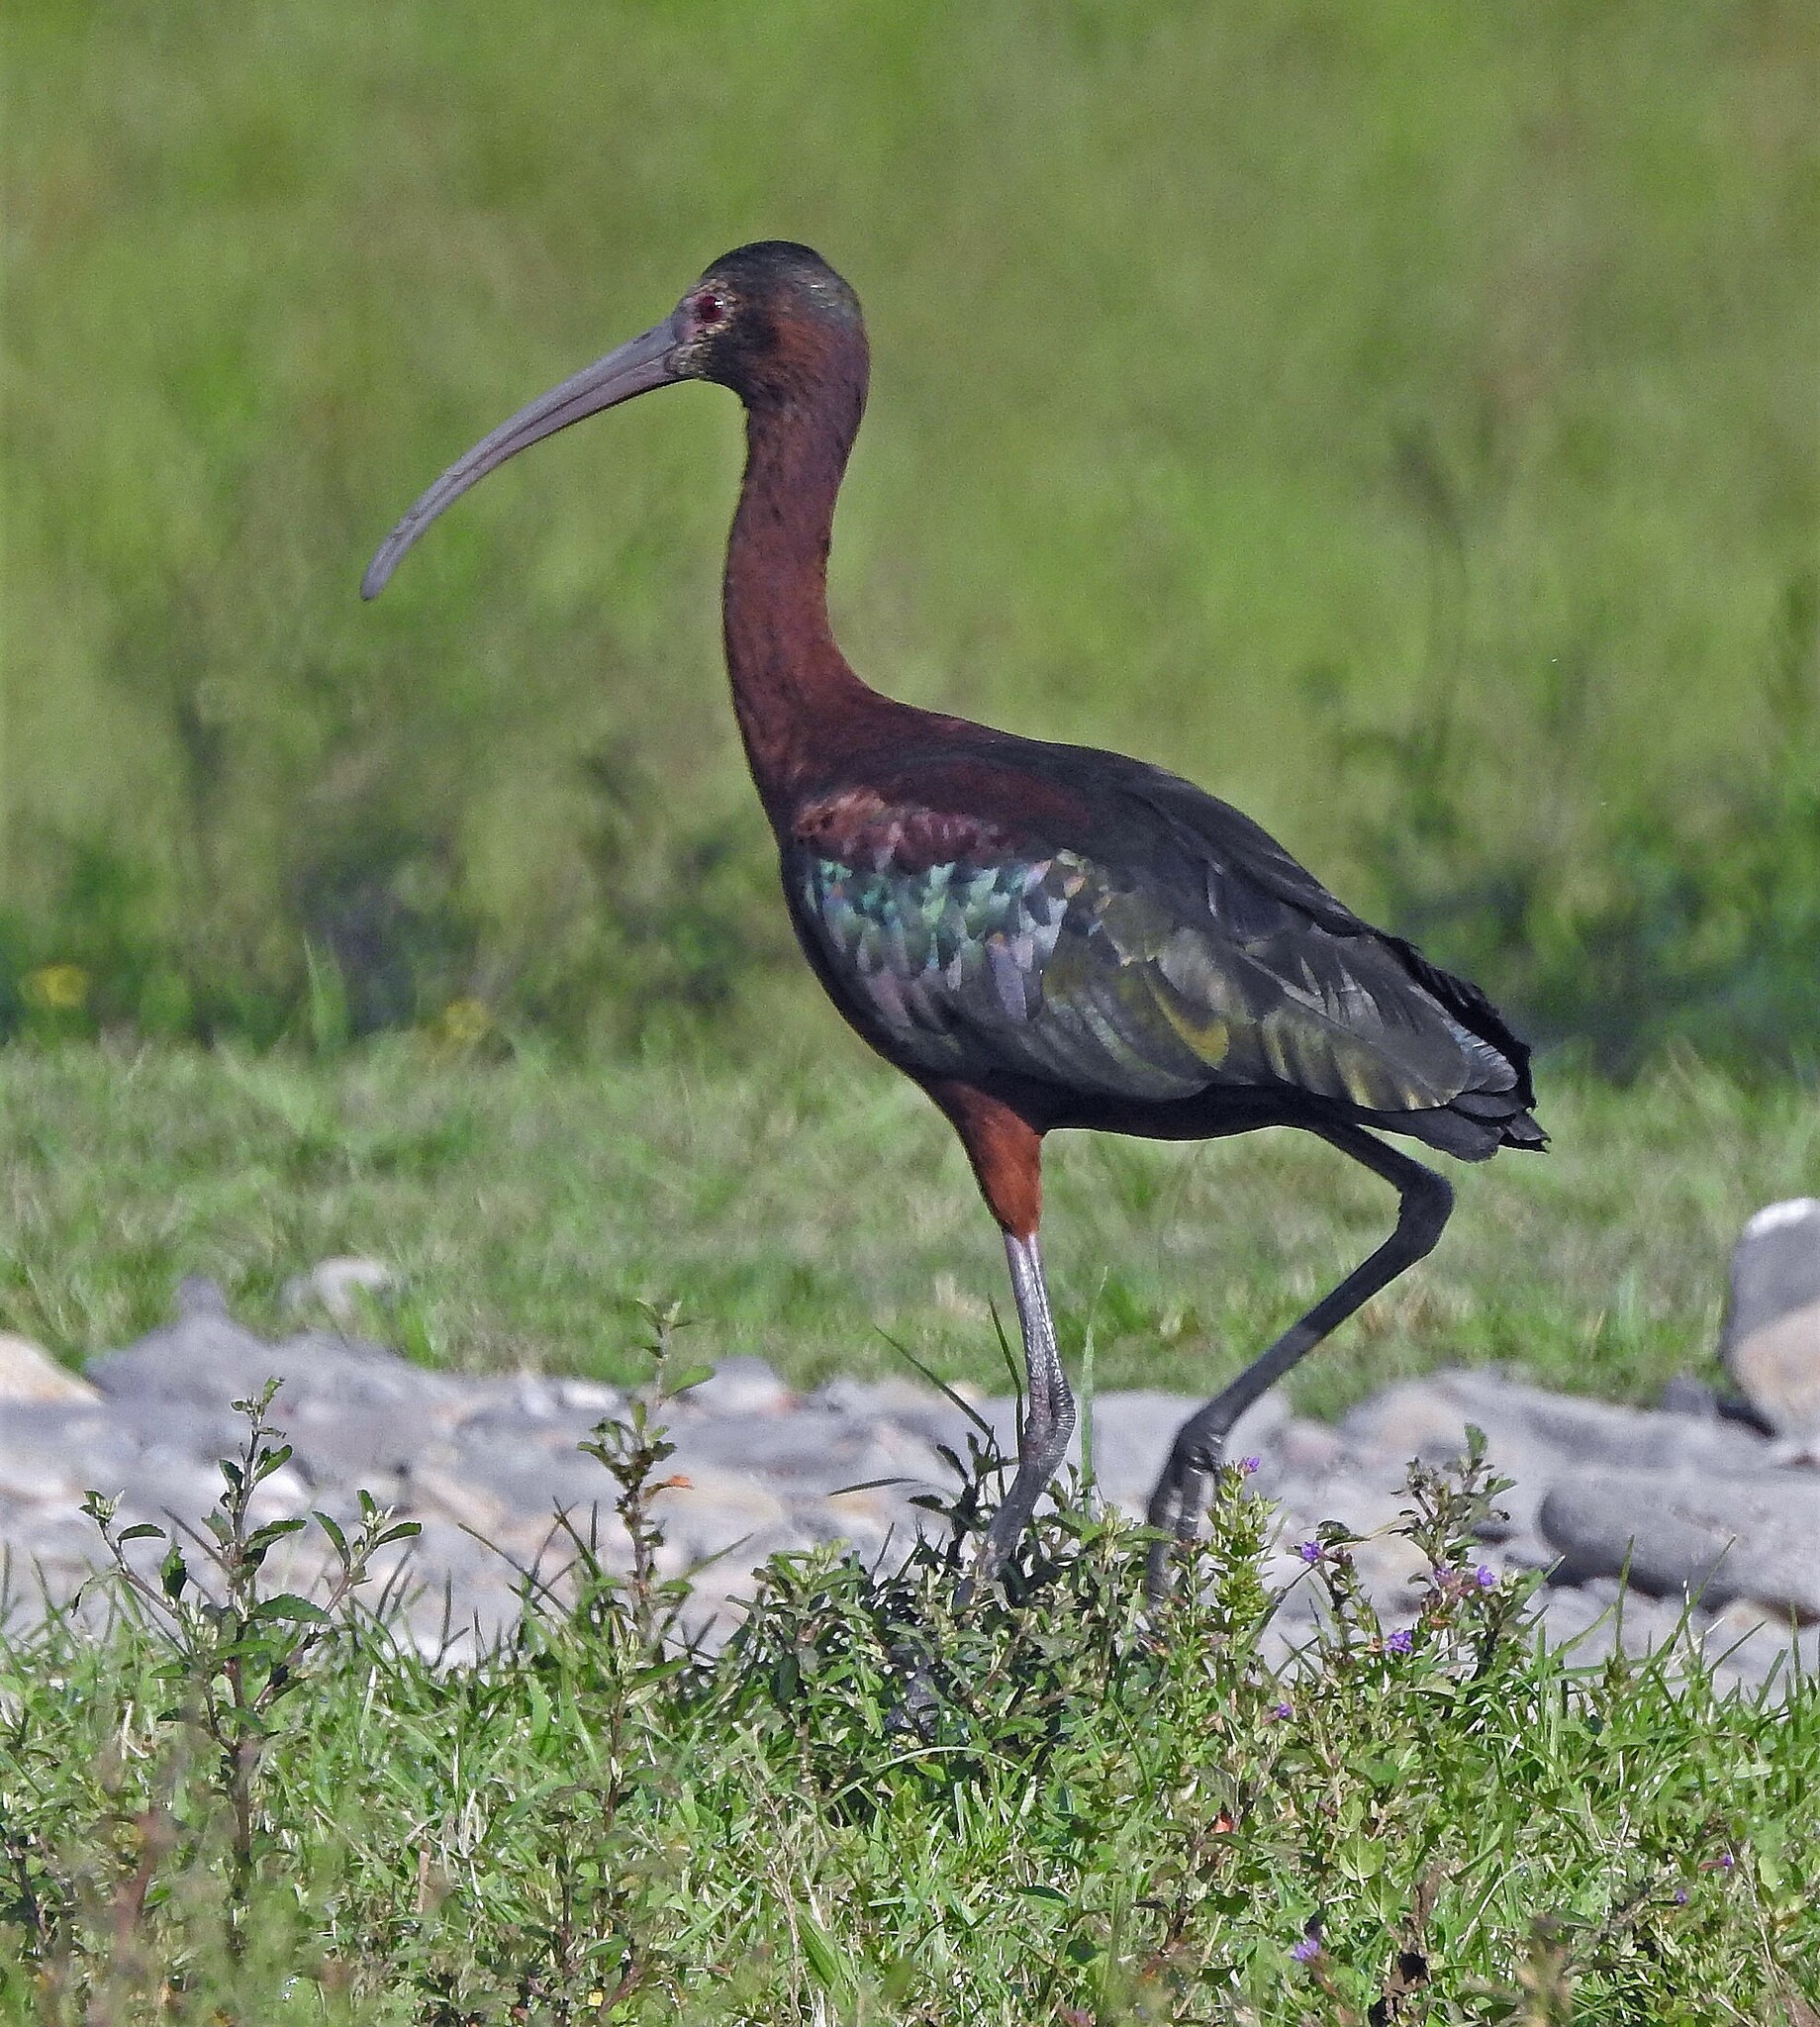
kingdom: Animalia
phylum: Chordata
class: Aves
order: Pelecaniformes
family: Threskiornithidae
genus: Plegadis
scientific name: Plegadis chihi
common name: White-faced ibis
